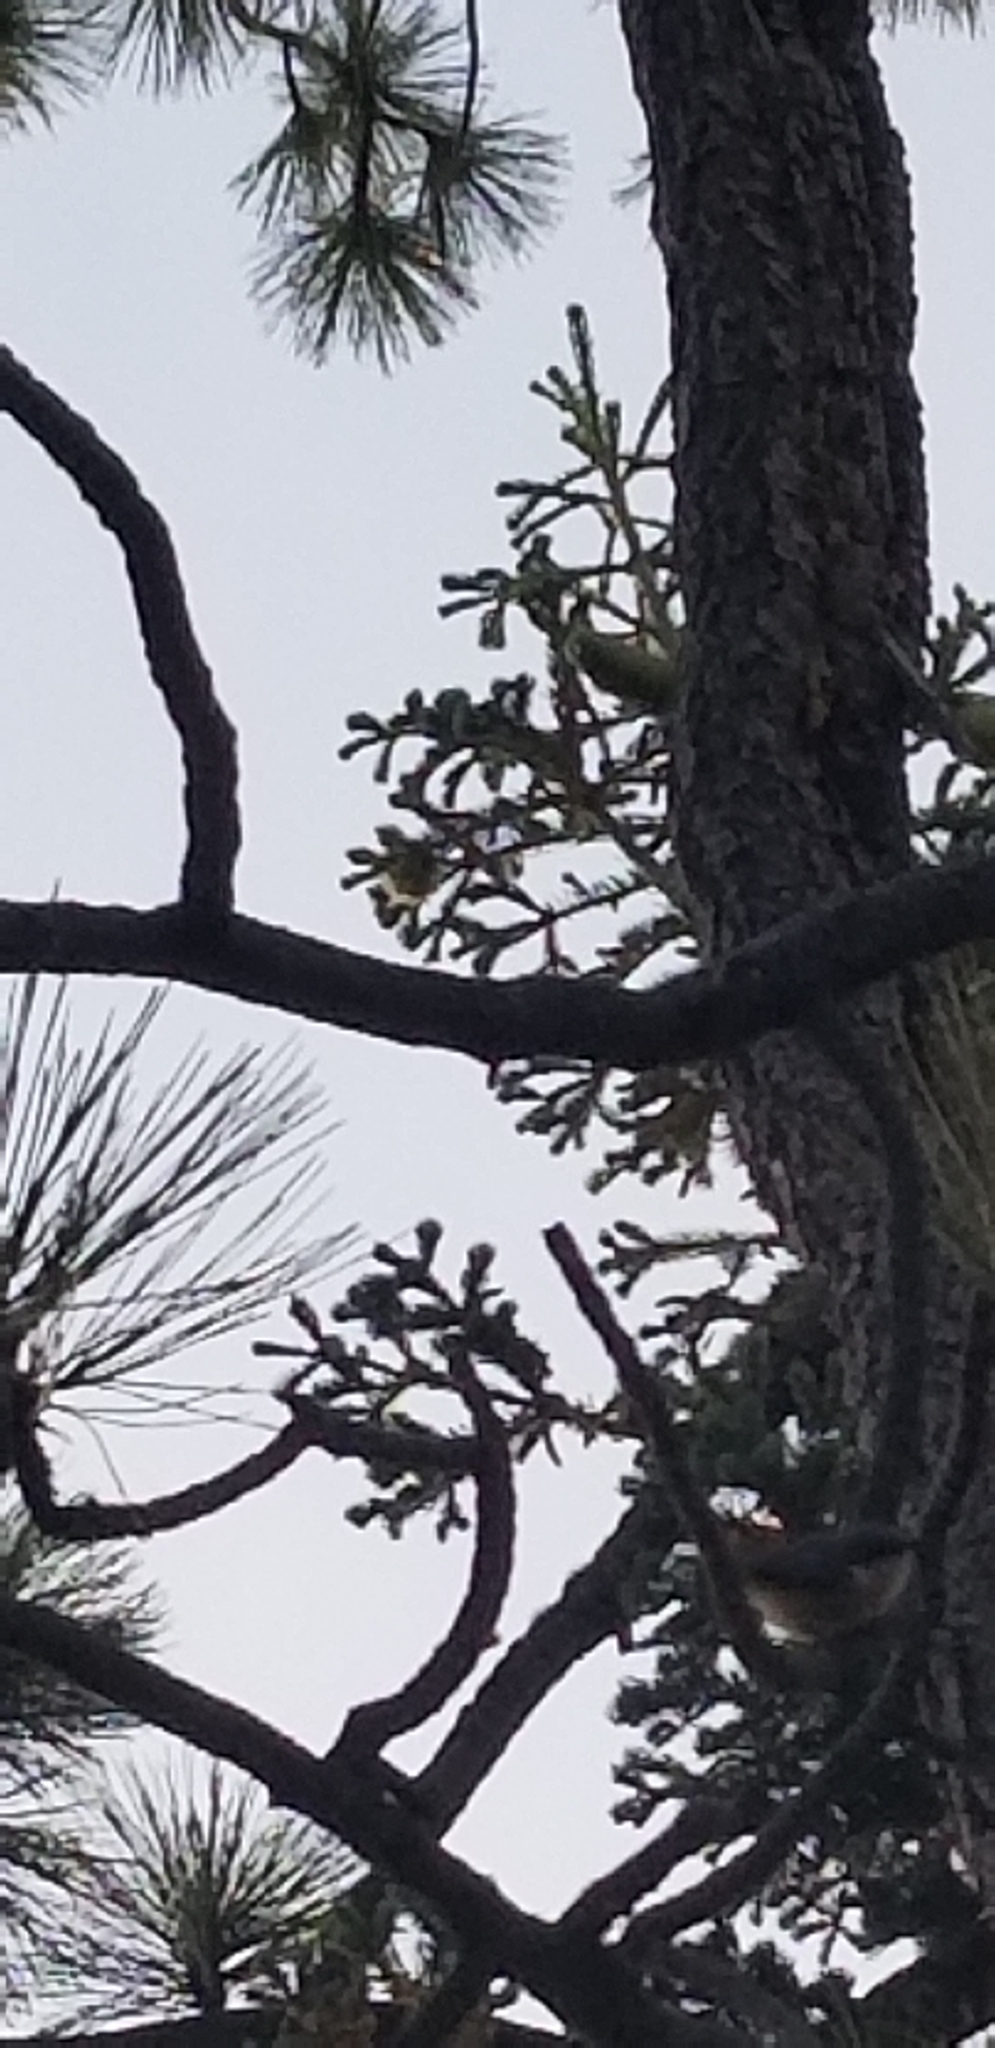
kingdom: Animalia
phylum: Chordata
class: Aves
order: Passeriformes
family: Sittidae
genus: Sitta
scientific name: Sitta pygmaea
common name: Pygmy nuthatch
